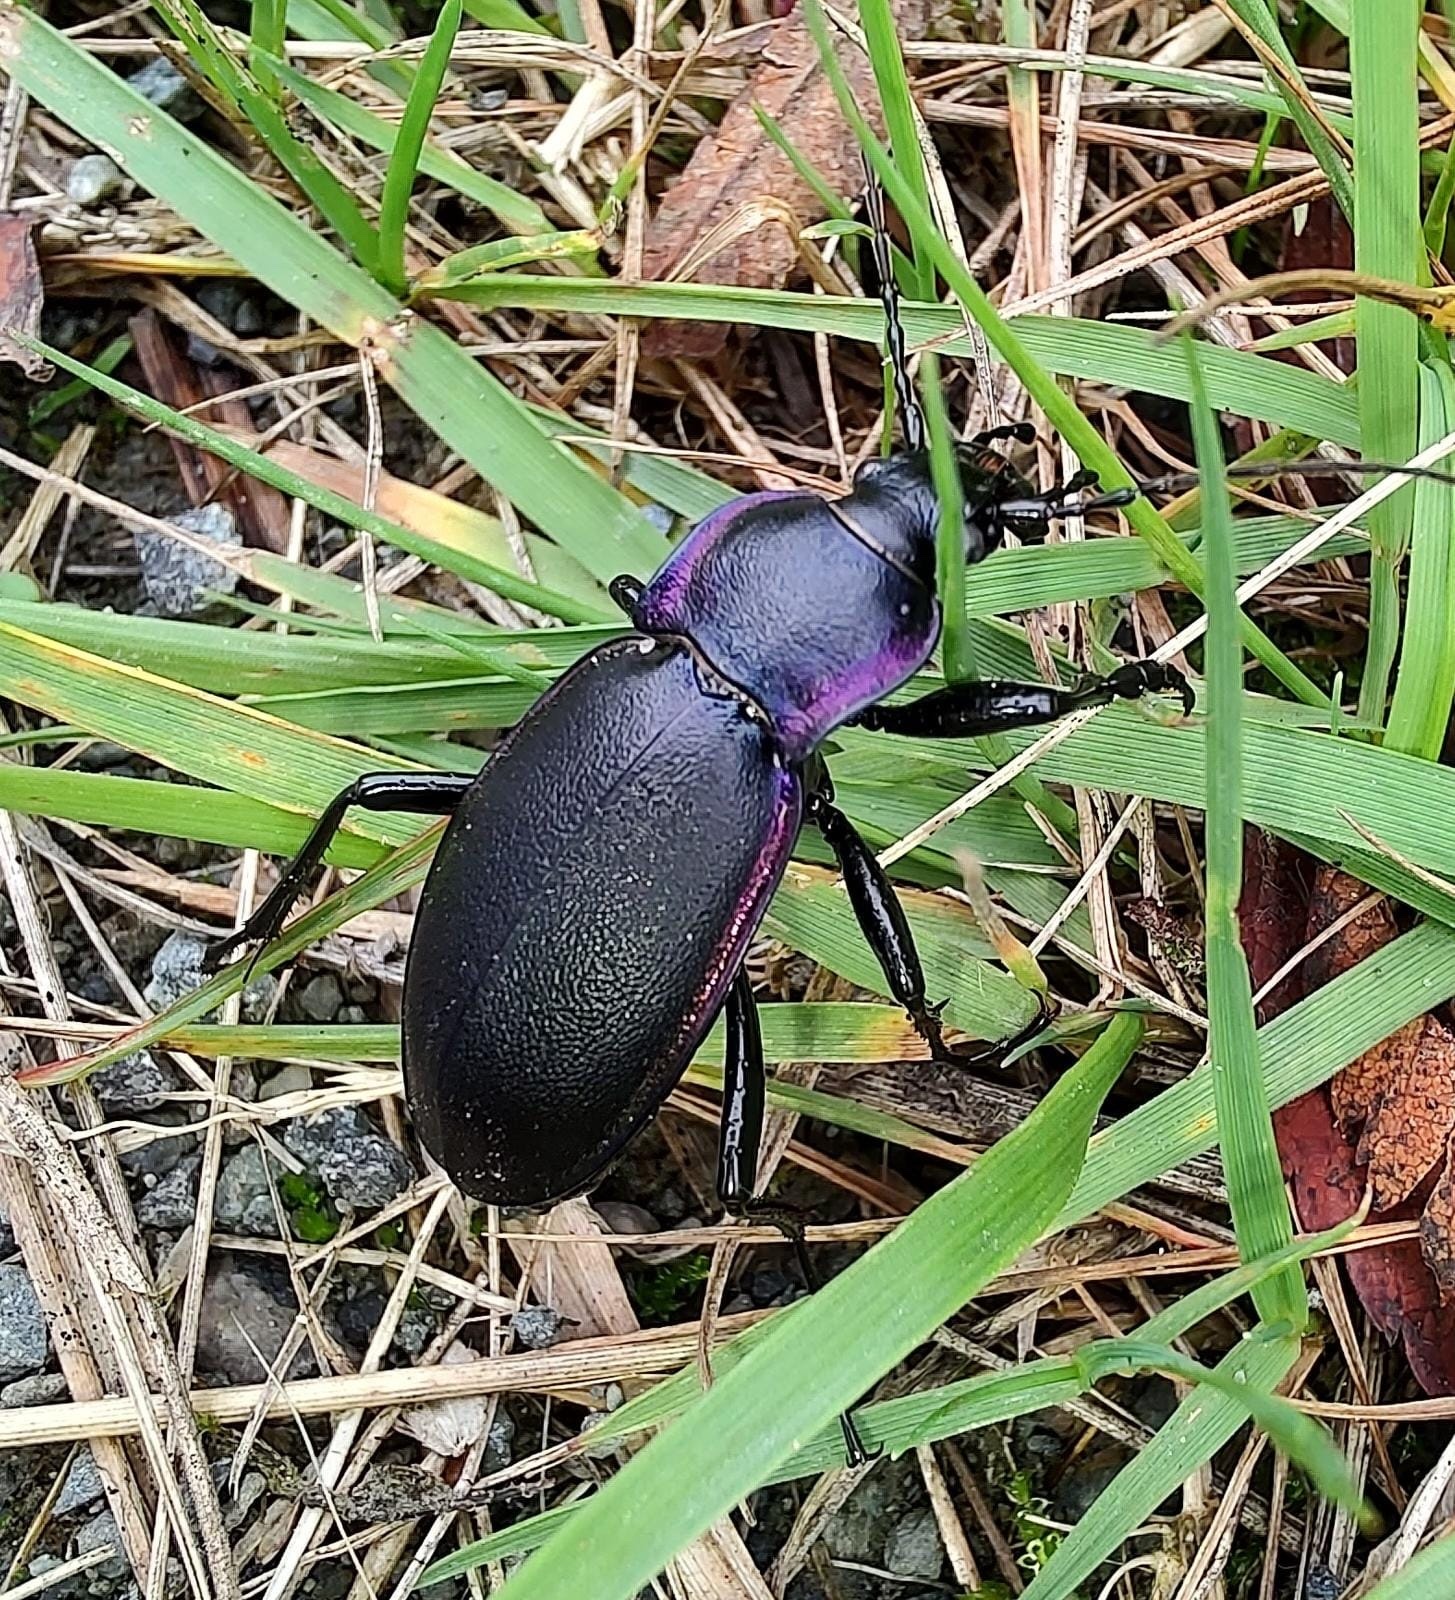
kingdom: Animalia
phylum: Arthropoda
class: Insecta
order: Coleoptera
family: Carabidae
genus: Carabus
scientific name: Carabus violaceus
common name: Violet ground beetle
